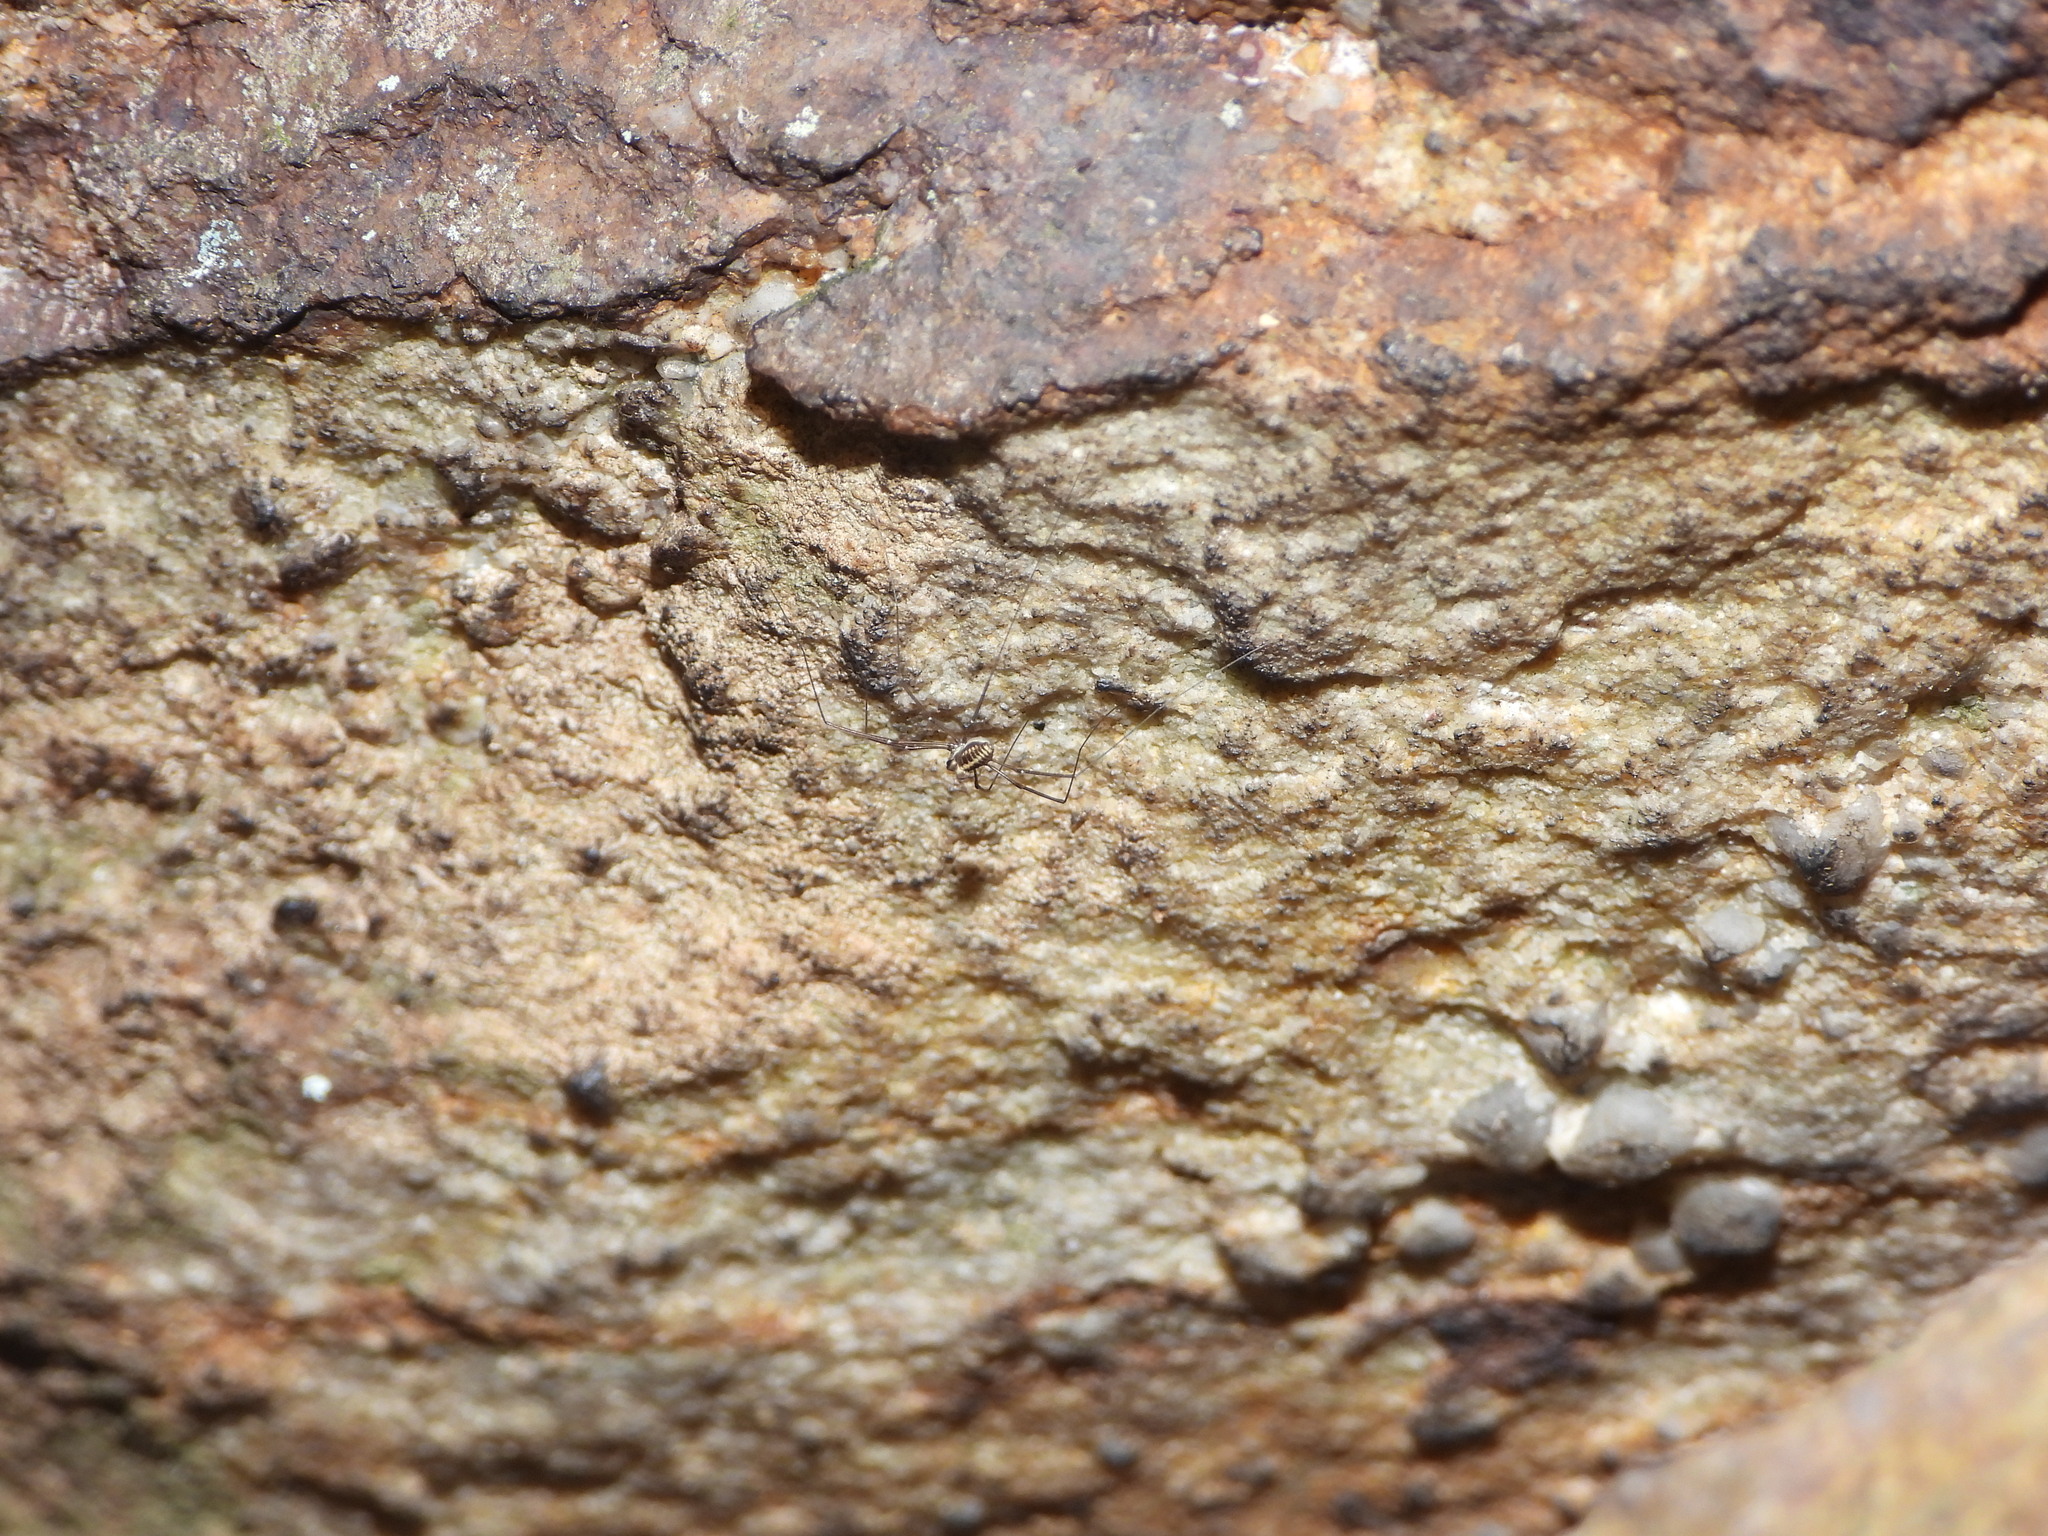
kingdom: Animalia
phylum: Arthropoda
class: Arachnida
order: Opiliones
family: Caddidae
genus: Caddo
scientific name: Caddo agilis
